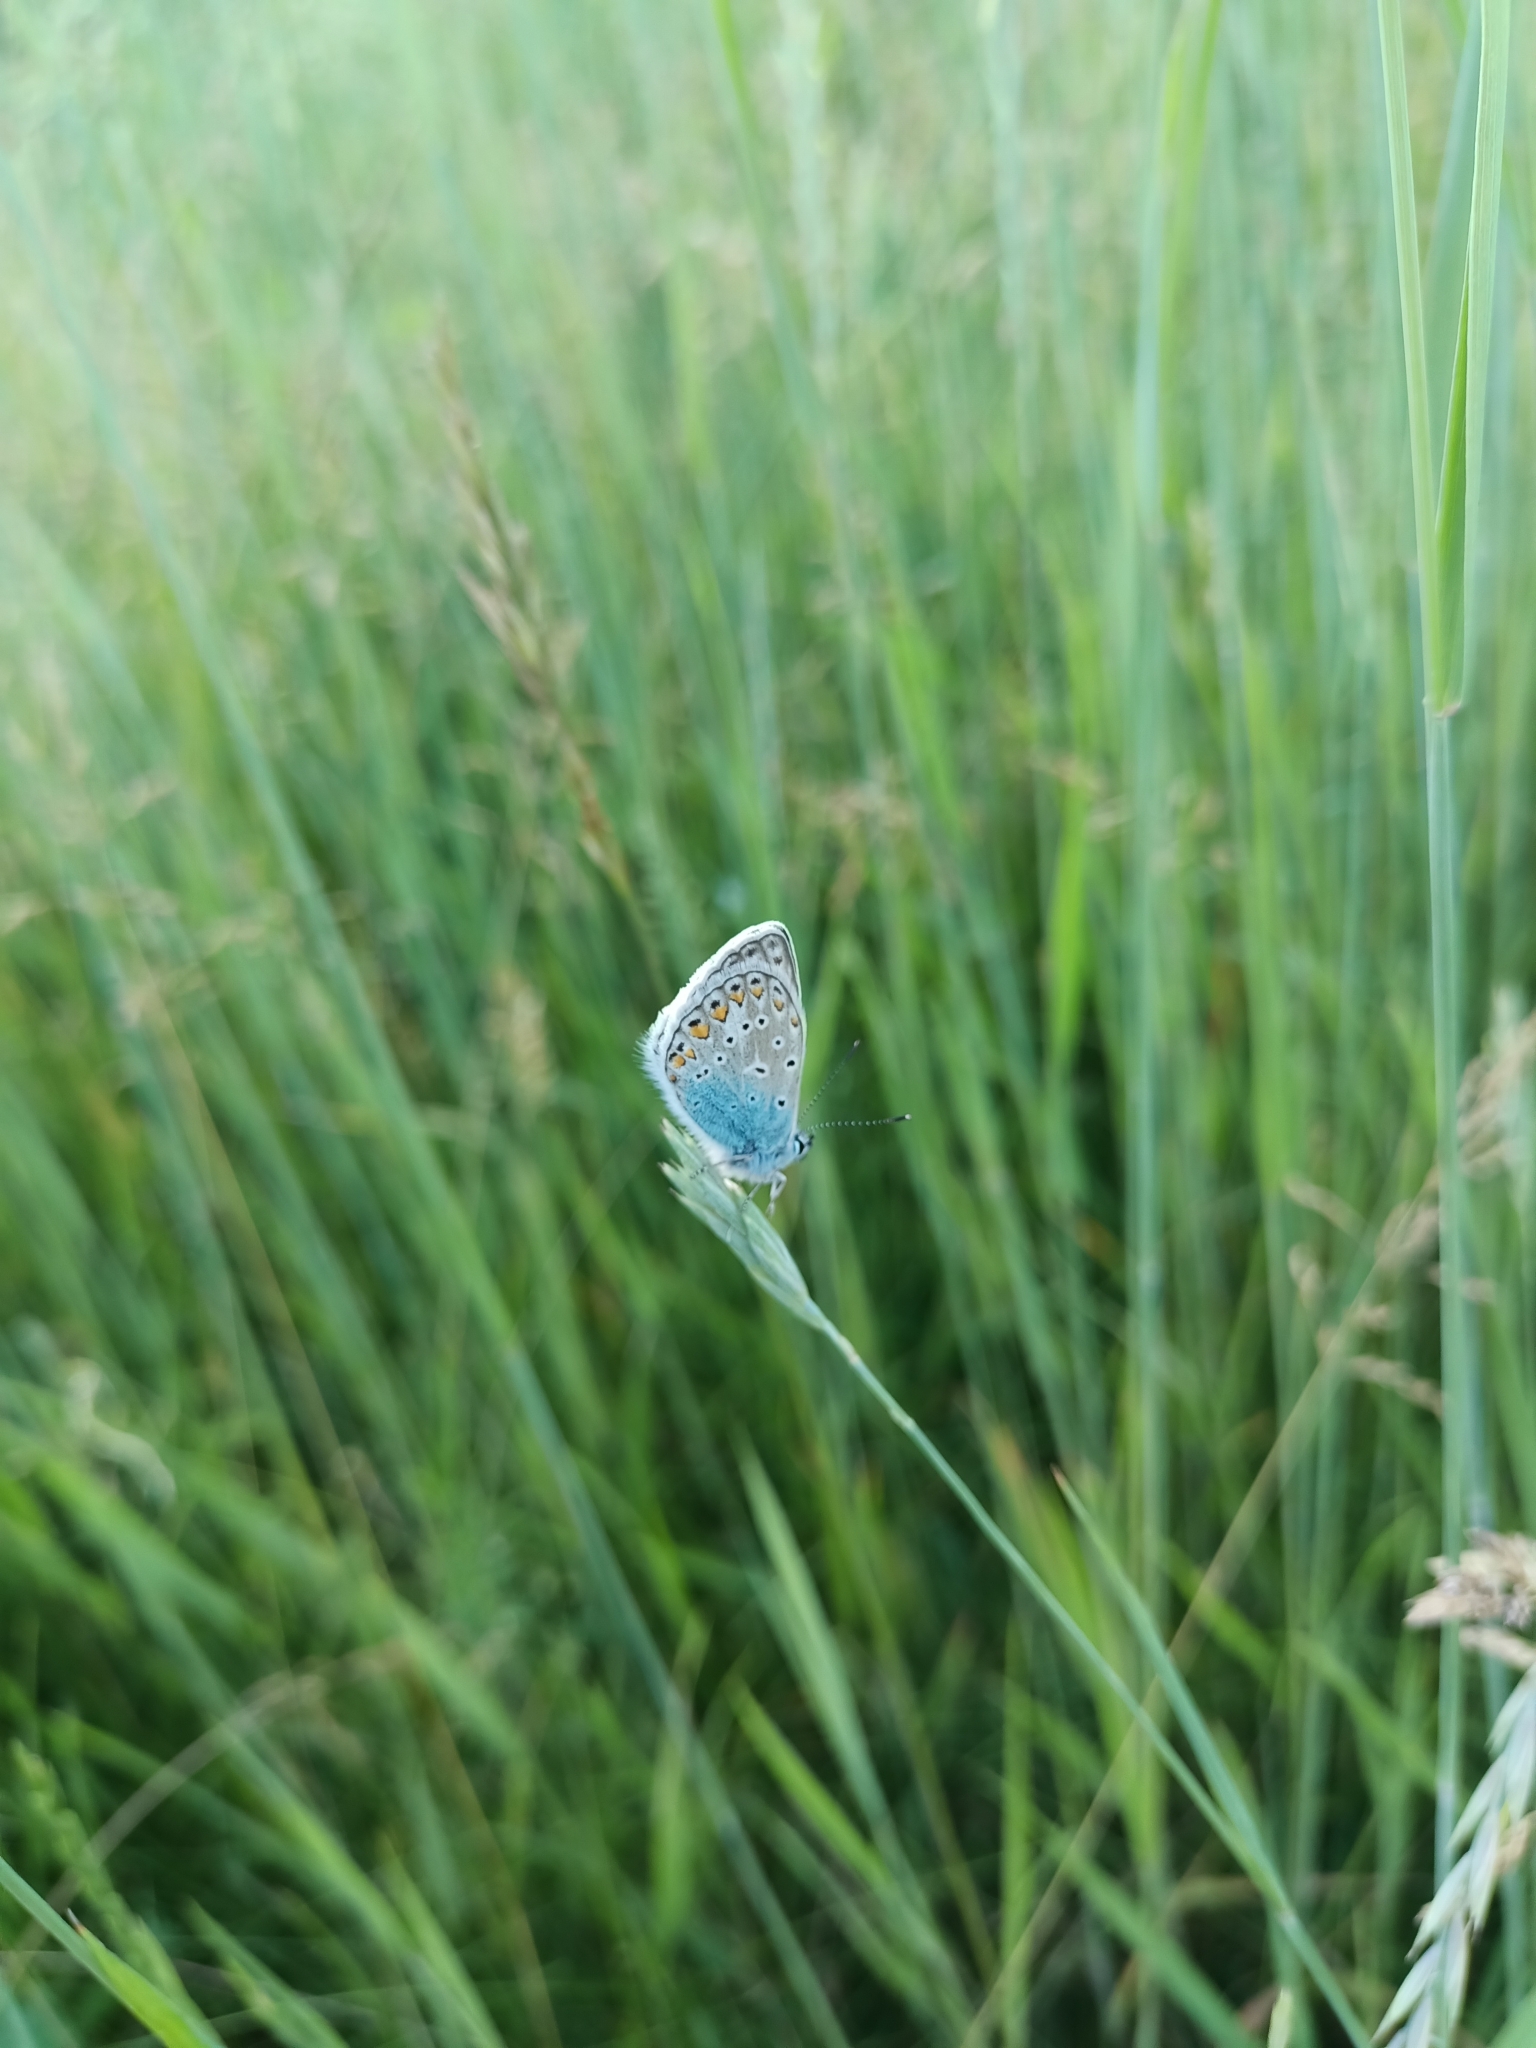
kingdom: Animalia
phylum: Arthropoda
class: Insecta
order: Lepidoptera
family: Lycaenidae
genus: Polyommatus
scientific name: Polyommatus icarus
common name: Common blue
